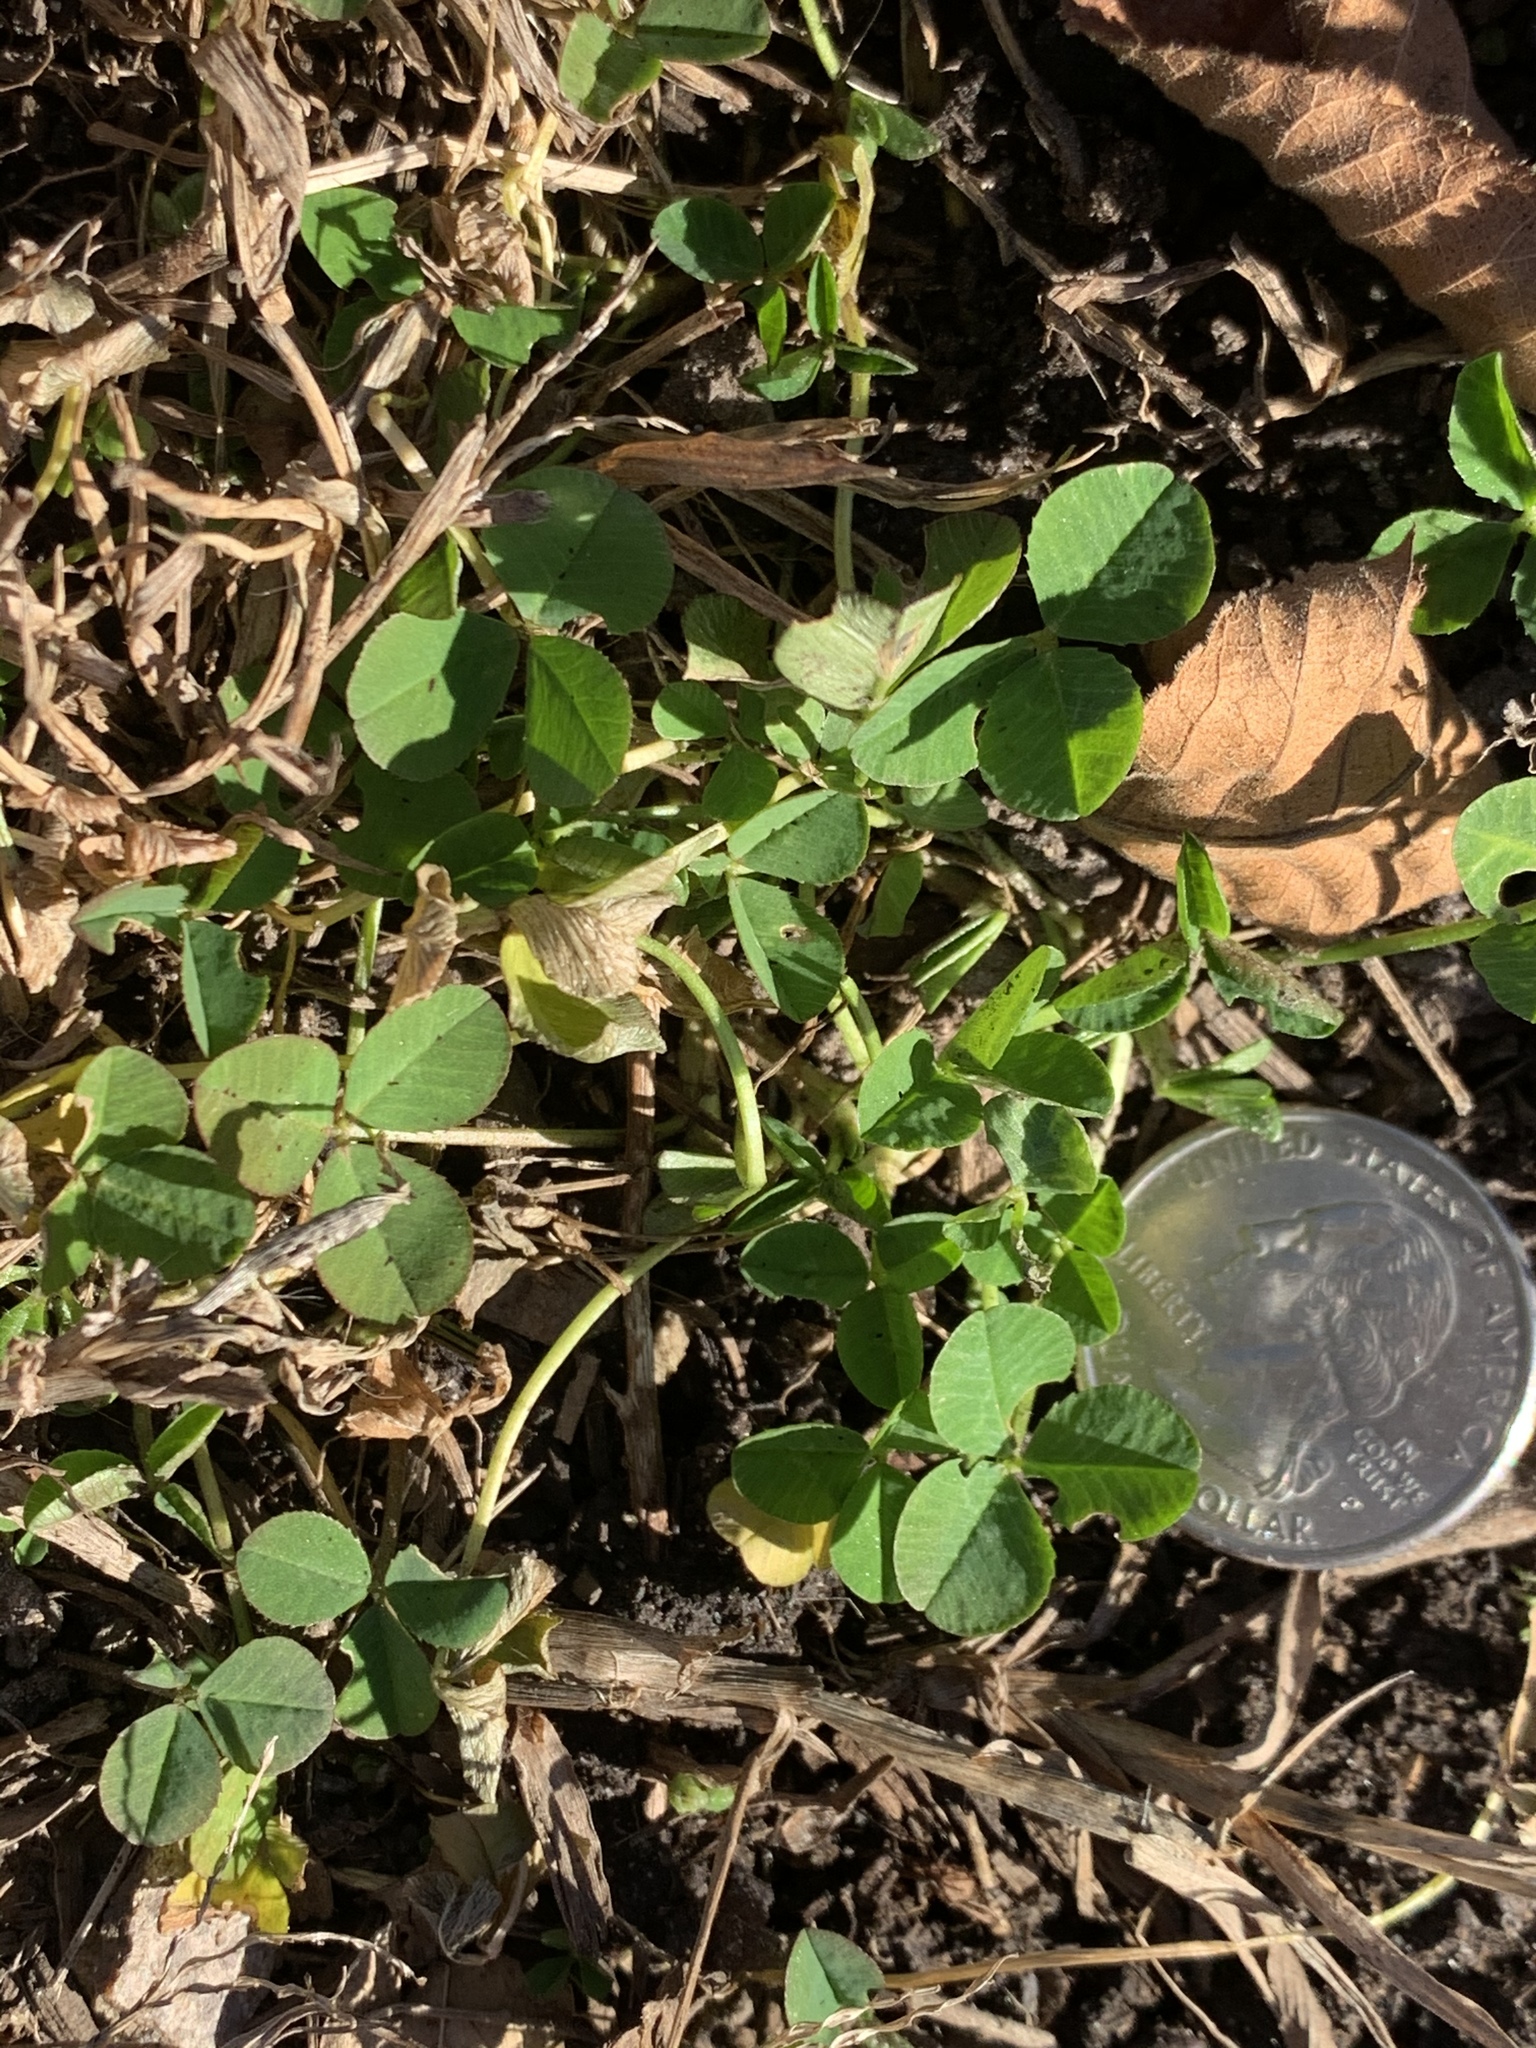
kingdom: Plantae
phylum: Tracheophyta
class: Magnoliopsida
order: Fabales
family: Fabaceae
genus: Trifolium
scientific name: Trifolium repens
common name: White clover
